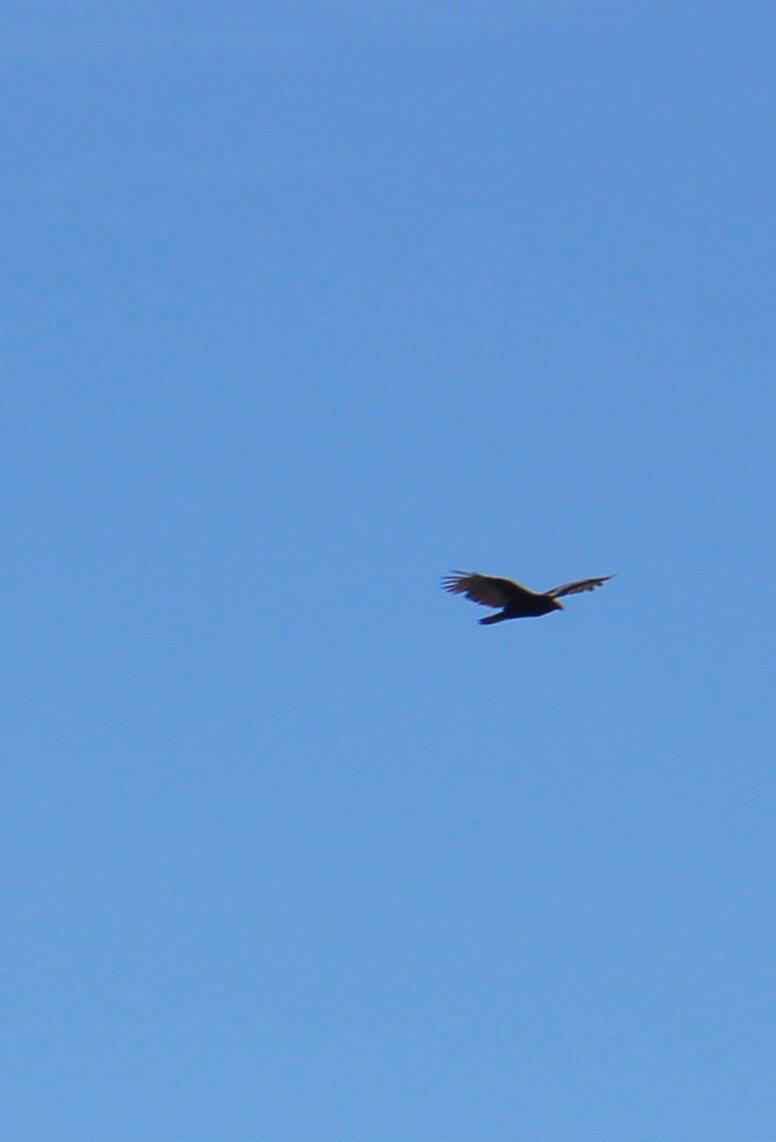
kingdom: Animalia
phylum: Chordata
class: Aves
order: Accipitriformes
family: Cathartidae
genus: Cathartes
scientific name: Cathartes aura
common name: Turkey vulture
